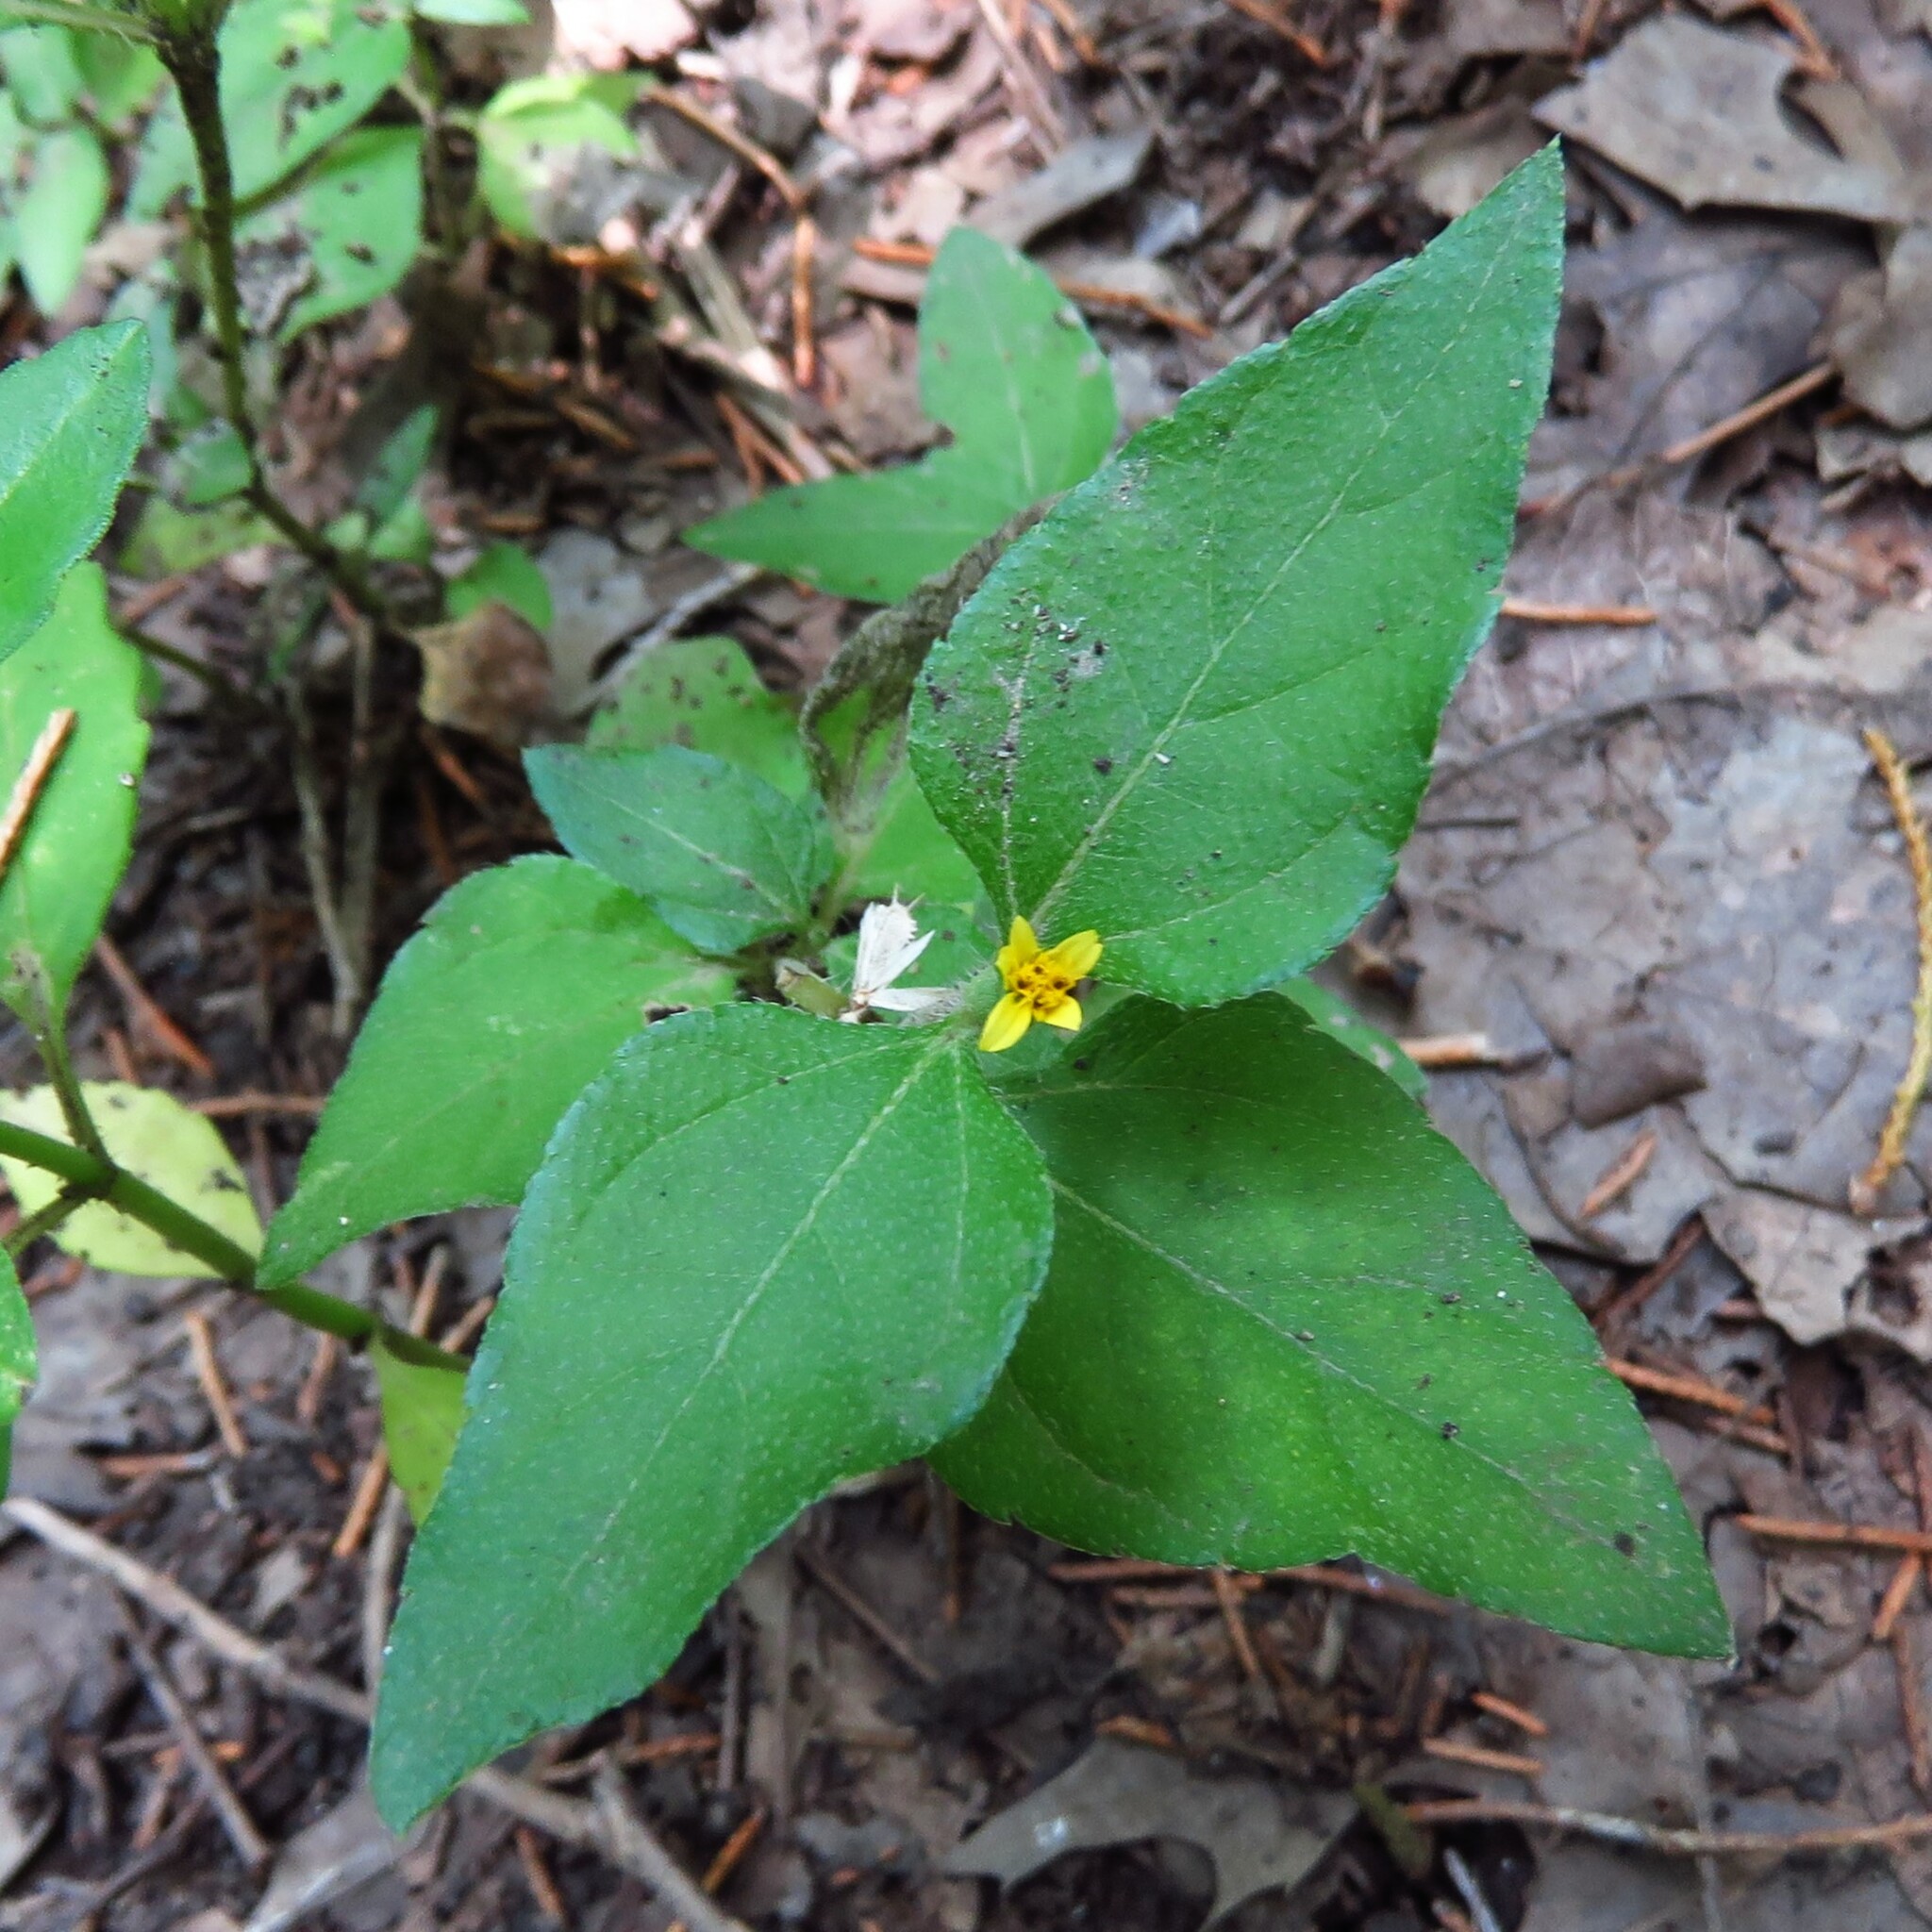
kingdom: Plantae
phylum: Tracheophyta
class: Magnoliopsida
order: Asterales
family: Asteraceae
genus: Calyptocarpus
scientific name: Calyptocarpus vialis
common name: Straggler daisy
